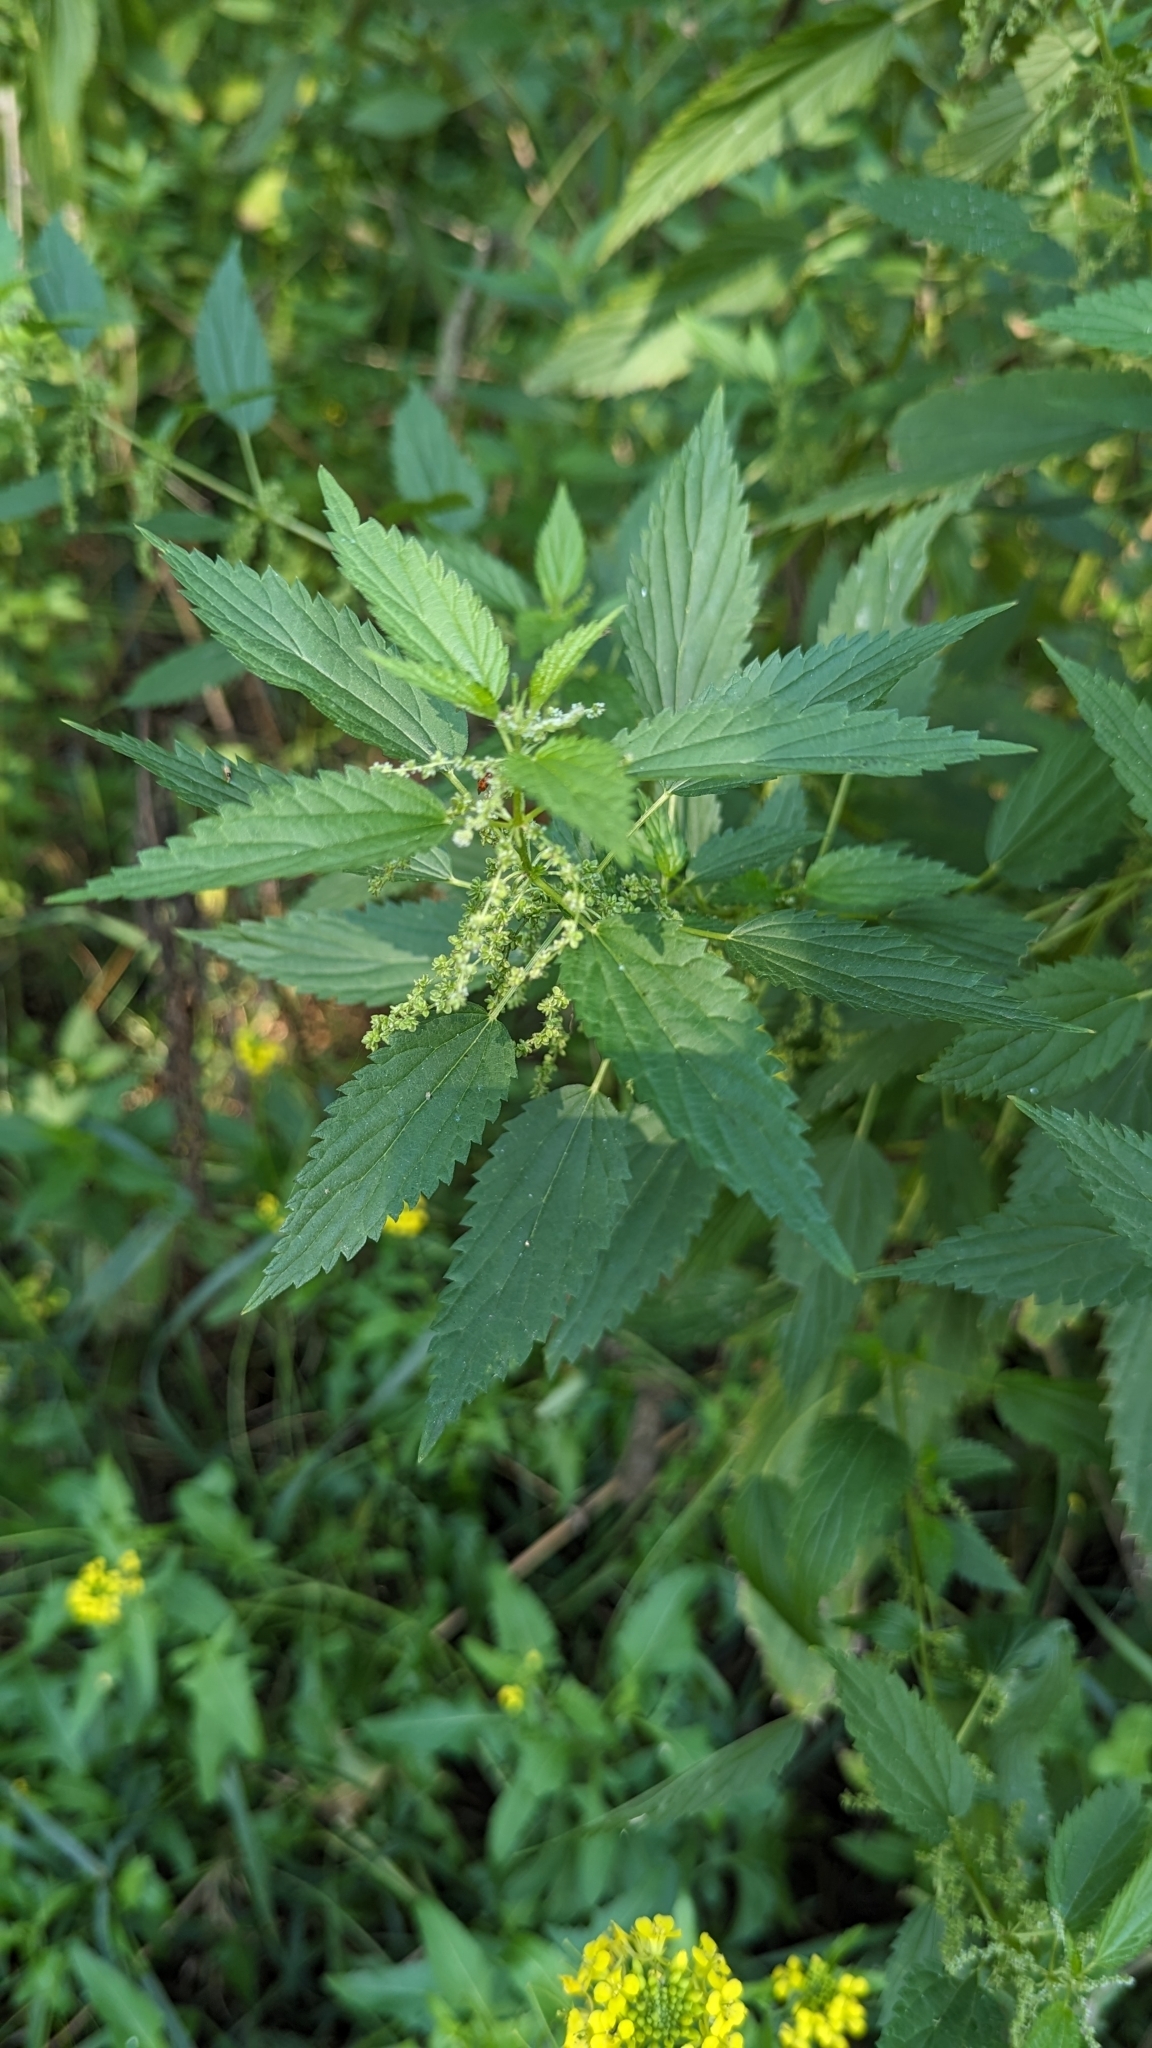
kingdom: Plantae
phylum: Tracheophyta
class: Magnoliopsida
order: Rosales
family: Urticaceae
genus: Urtica
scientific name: Urtica dioica
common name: Common nettle
